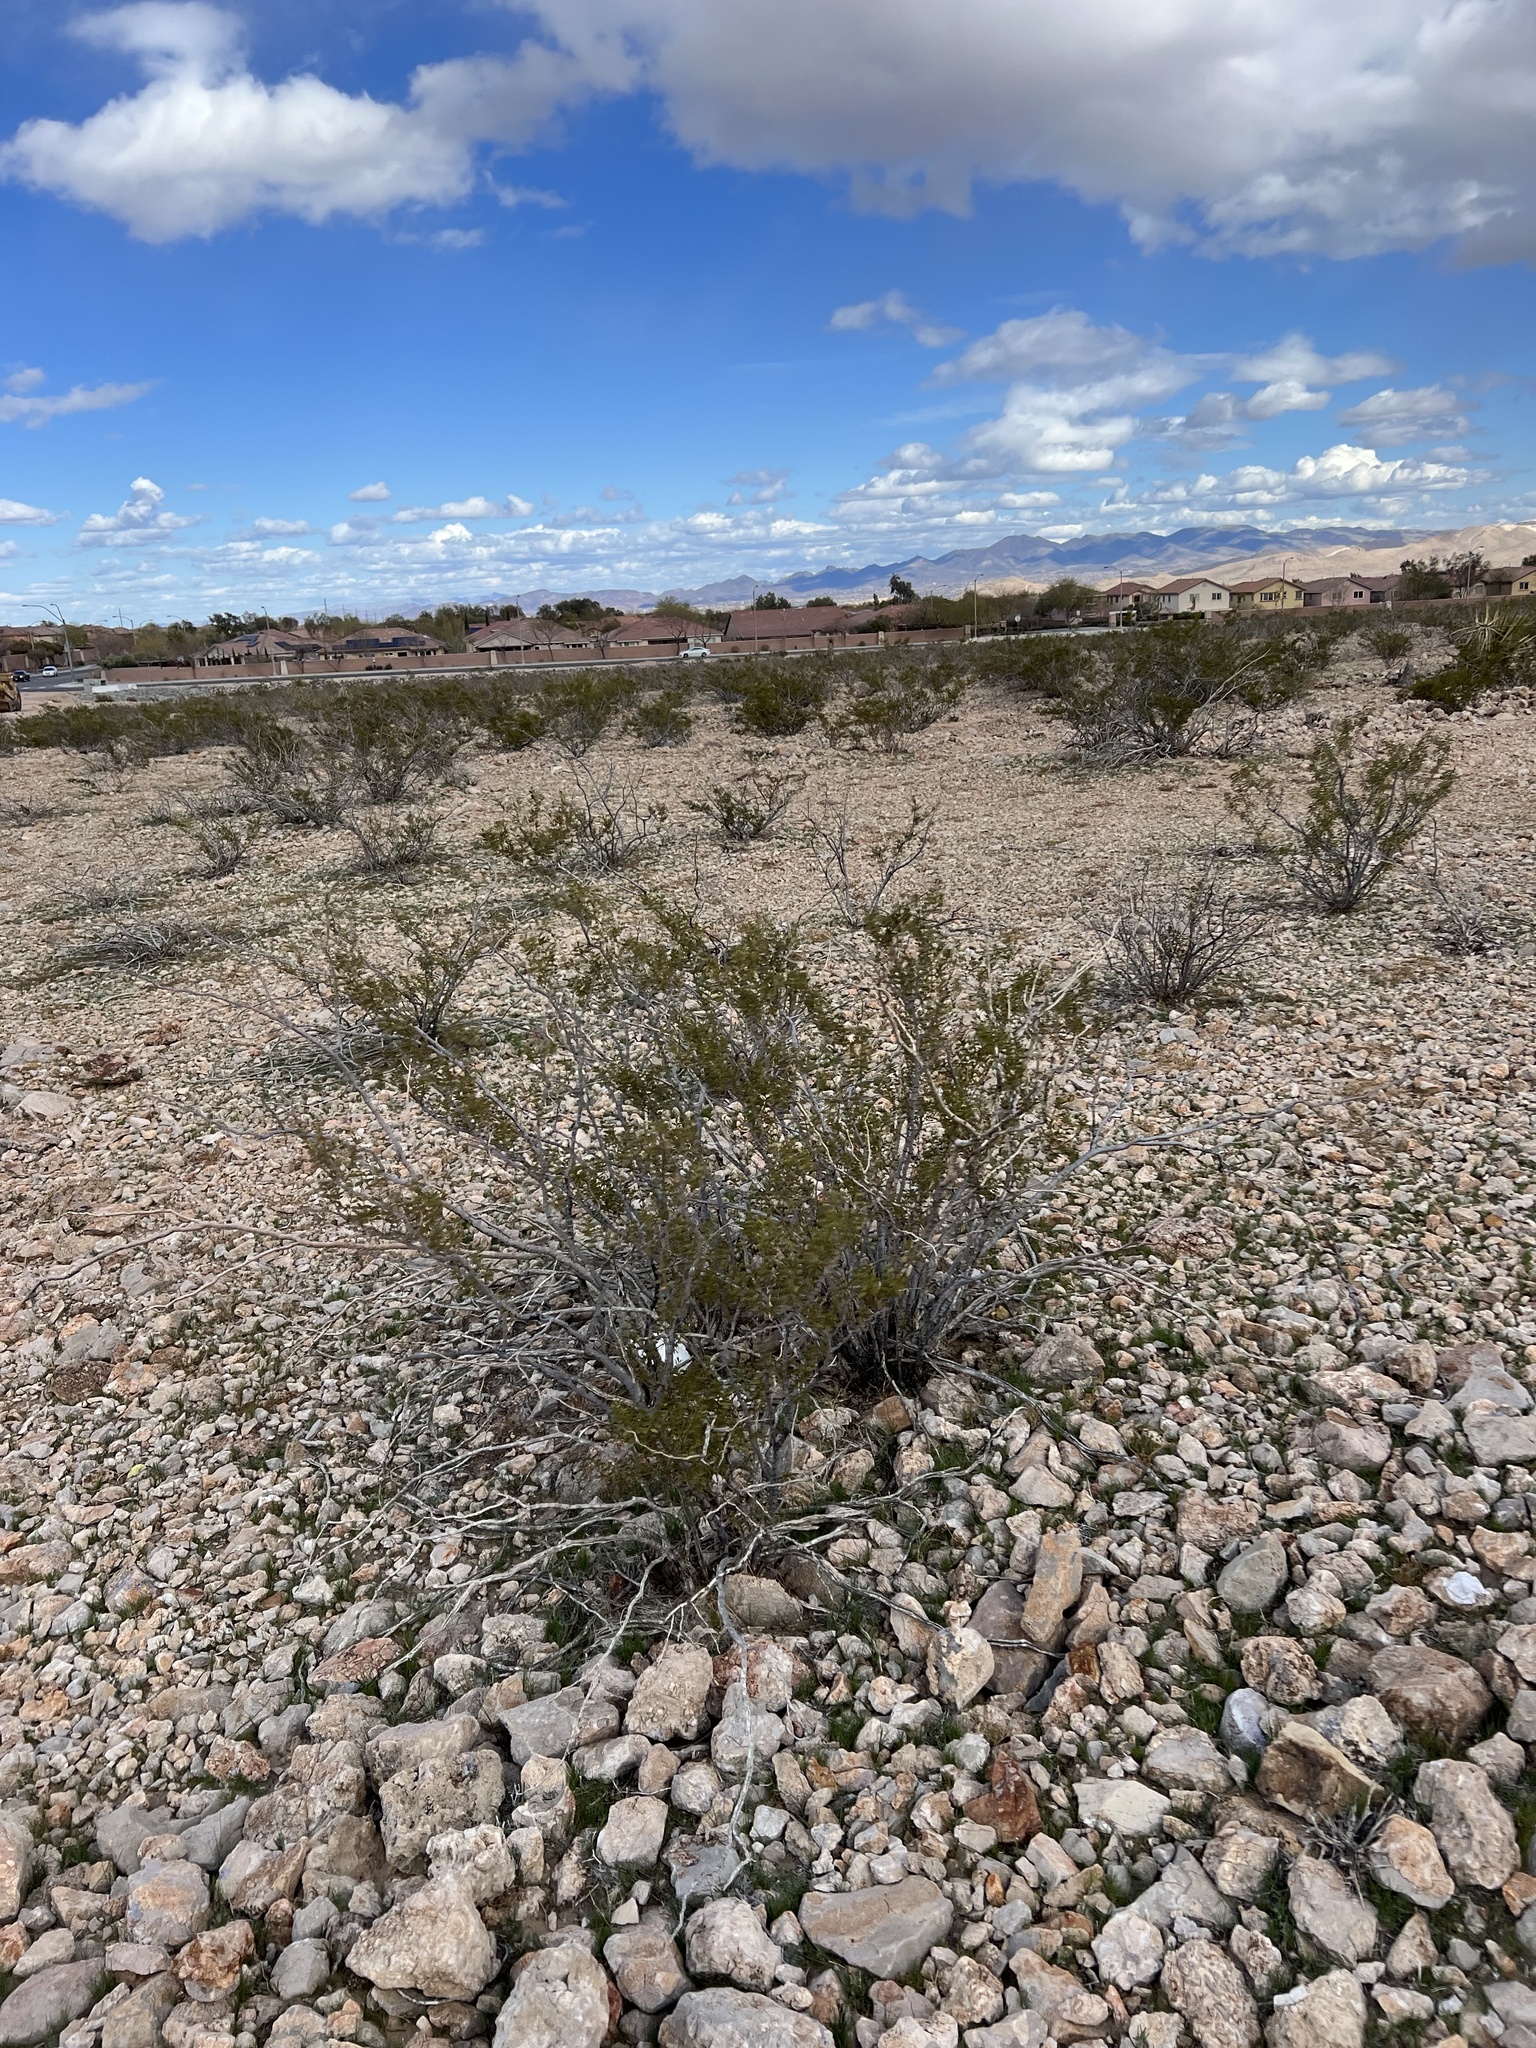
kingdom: Plantae
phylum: Tracheophyta
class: Magnoliopsida
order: Zygophyllales
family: Zygophyllaceae
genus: Larrea
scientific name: Larrea tridentata
